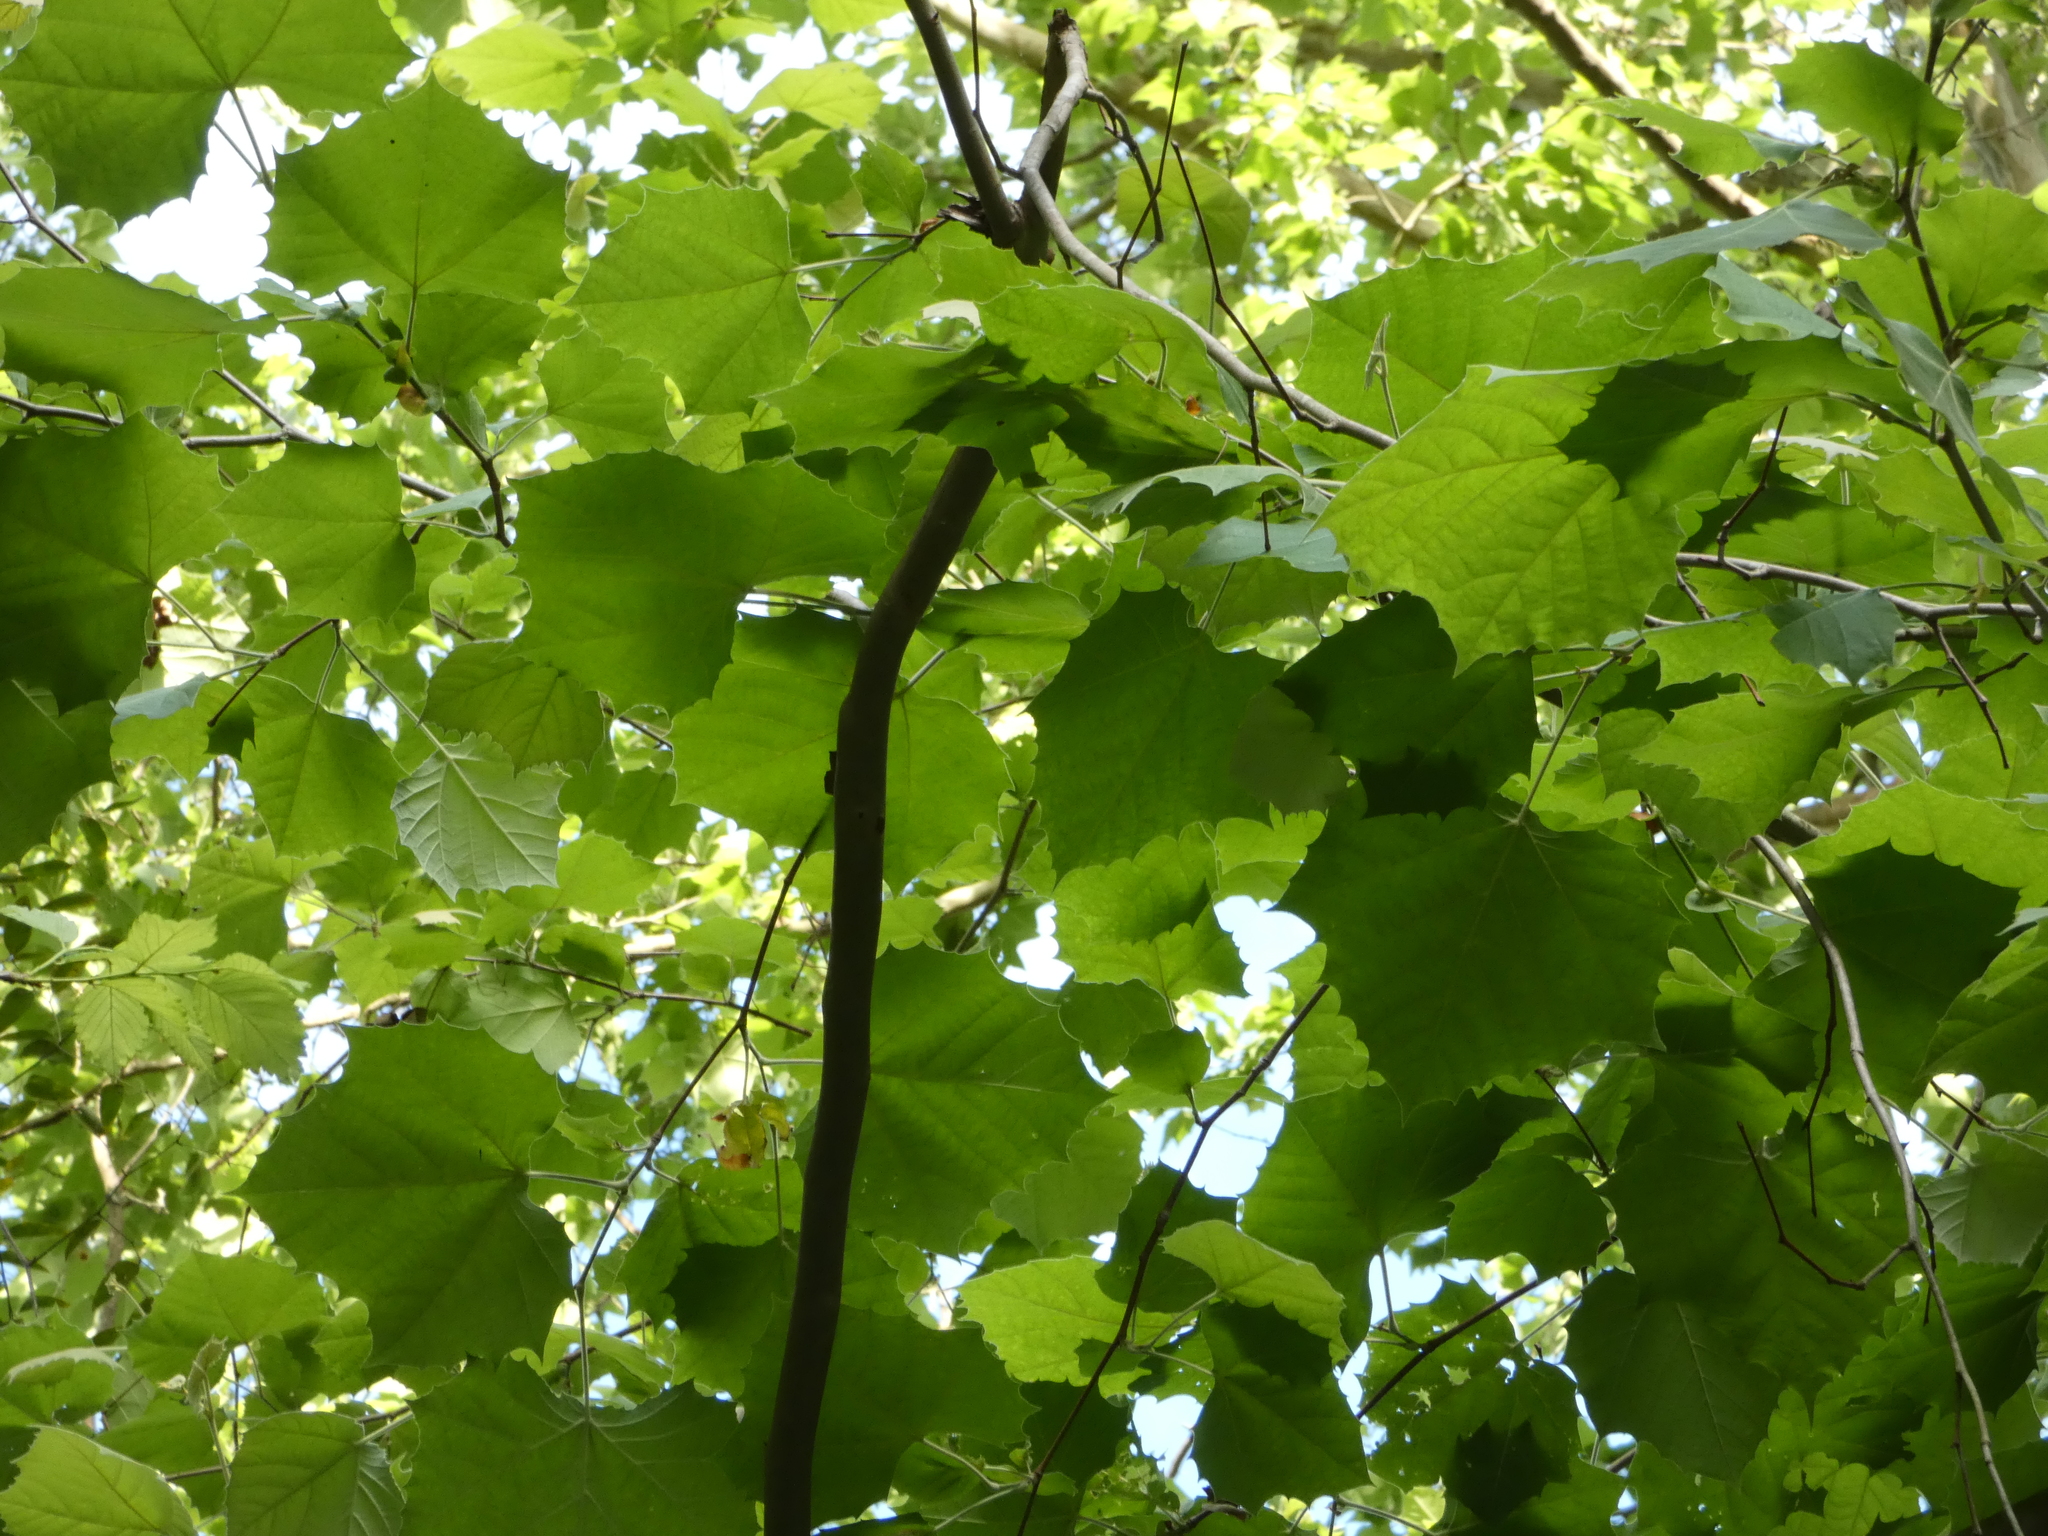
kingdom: Plantae
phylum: Tracheophyta
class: Magnoliopsida
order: Proteales
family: Platanaceae
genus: Platanus
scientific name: Platanus occidentalis
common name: American sycamore
